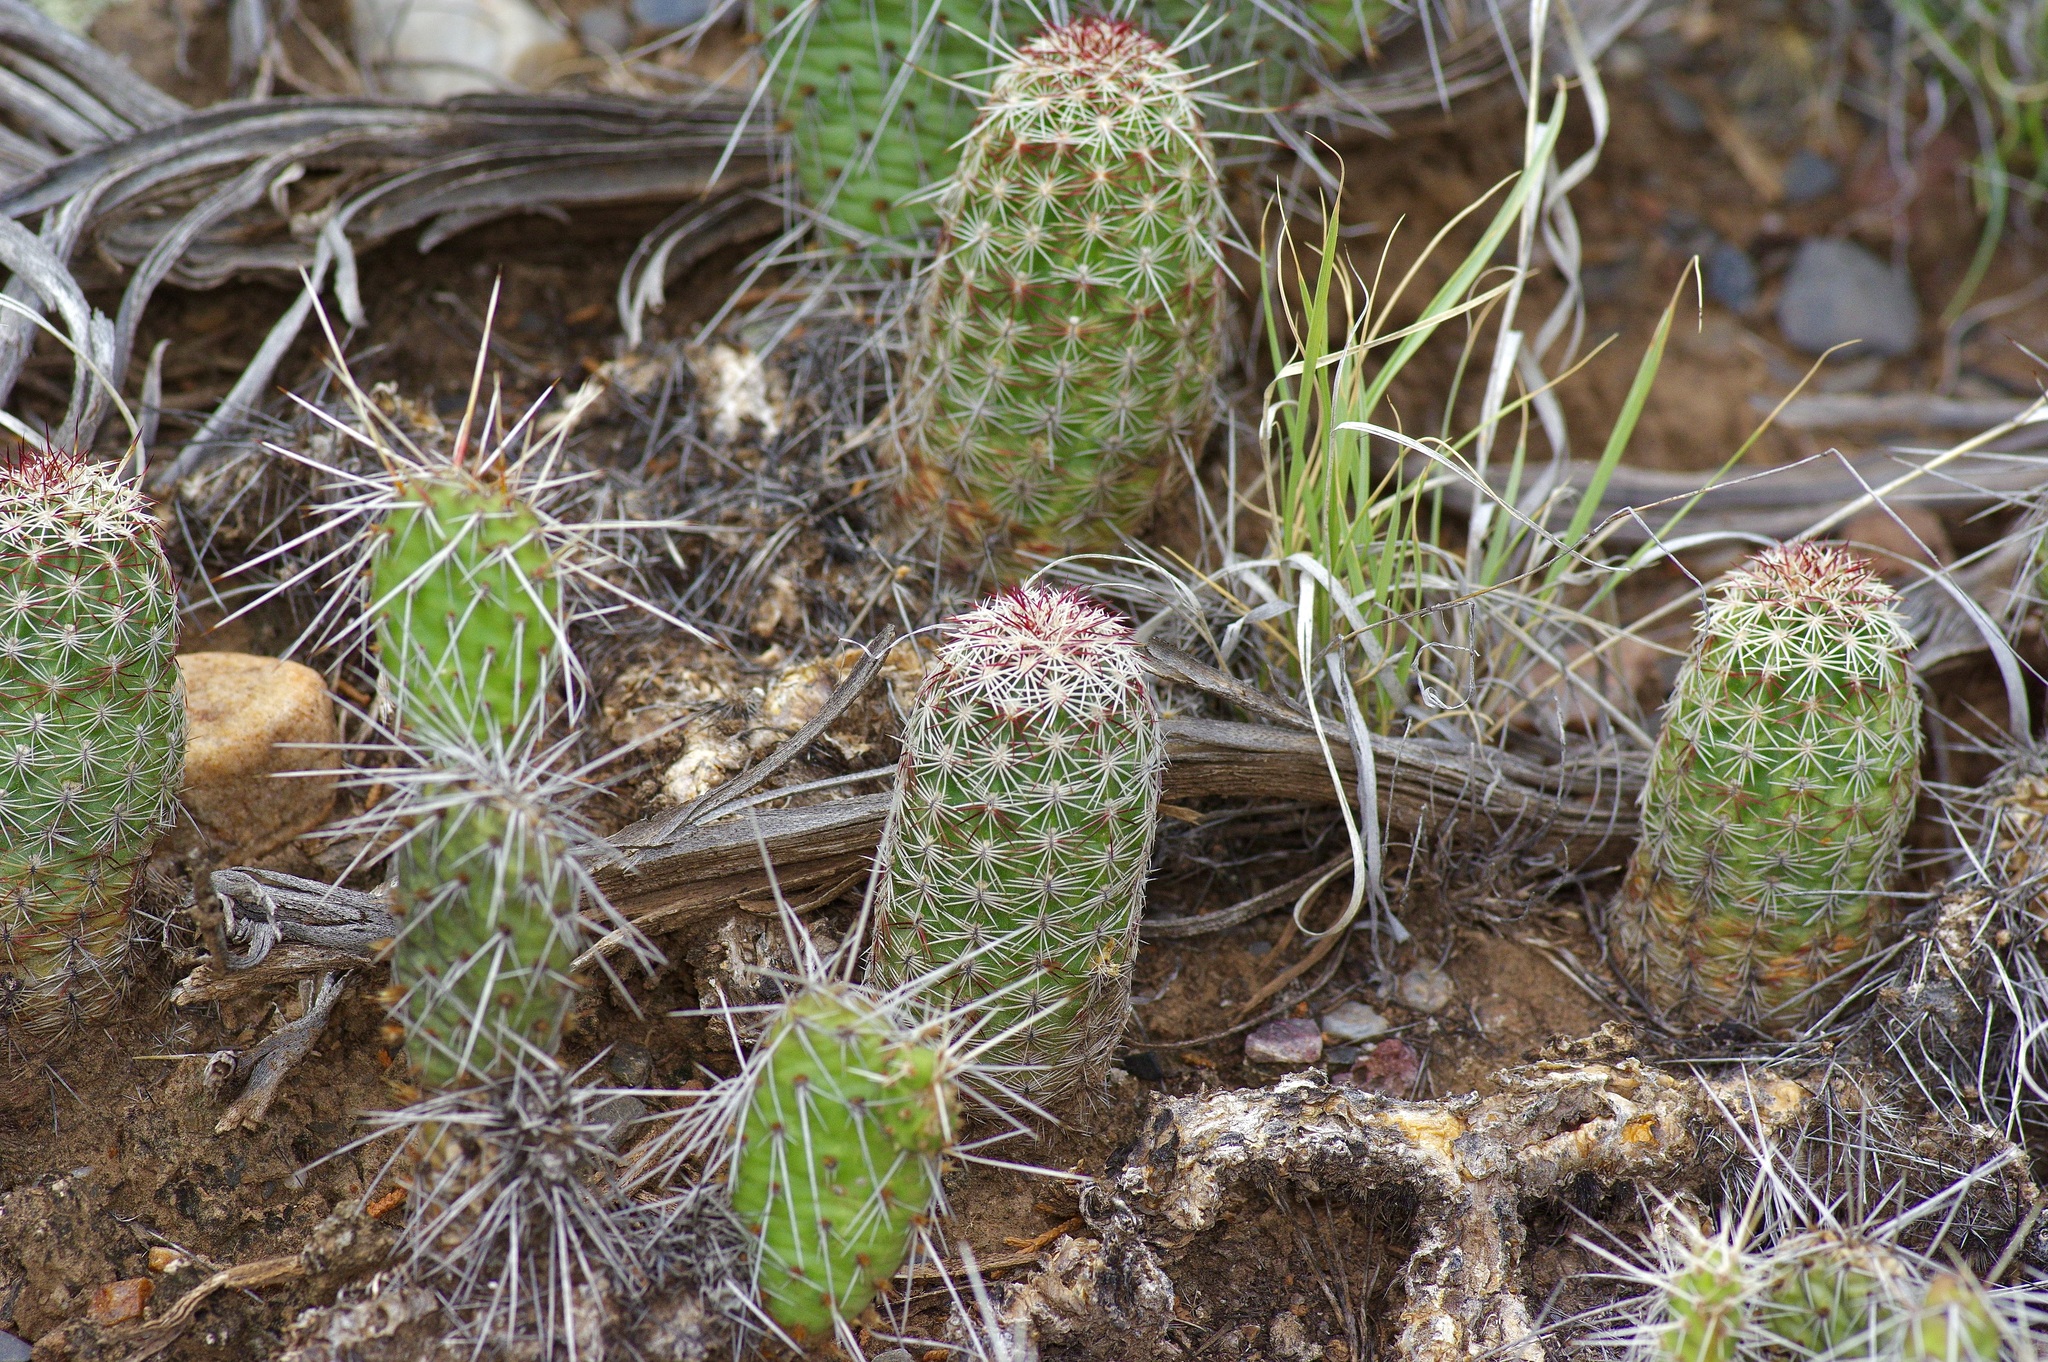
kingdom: Plantae
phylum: Tracheophyta
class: Magnoliopsida
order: Caryophyllales
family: Cactaceae
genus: Echinocereus
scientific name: Echinocereus viridiflorus
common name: Nylon hedgehog cactus
